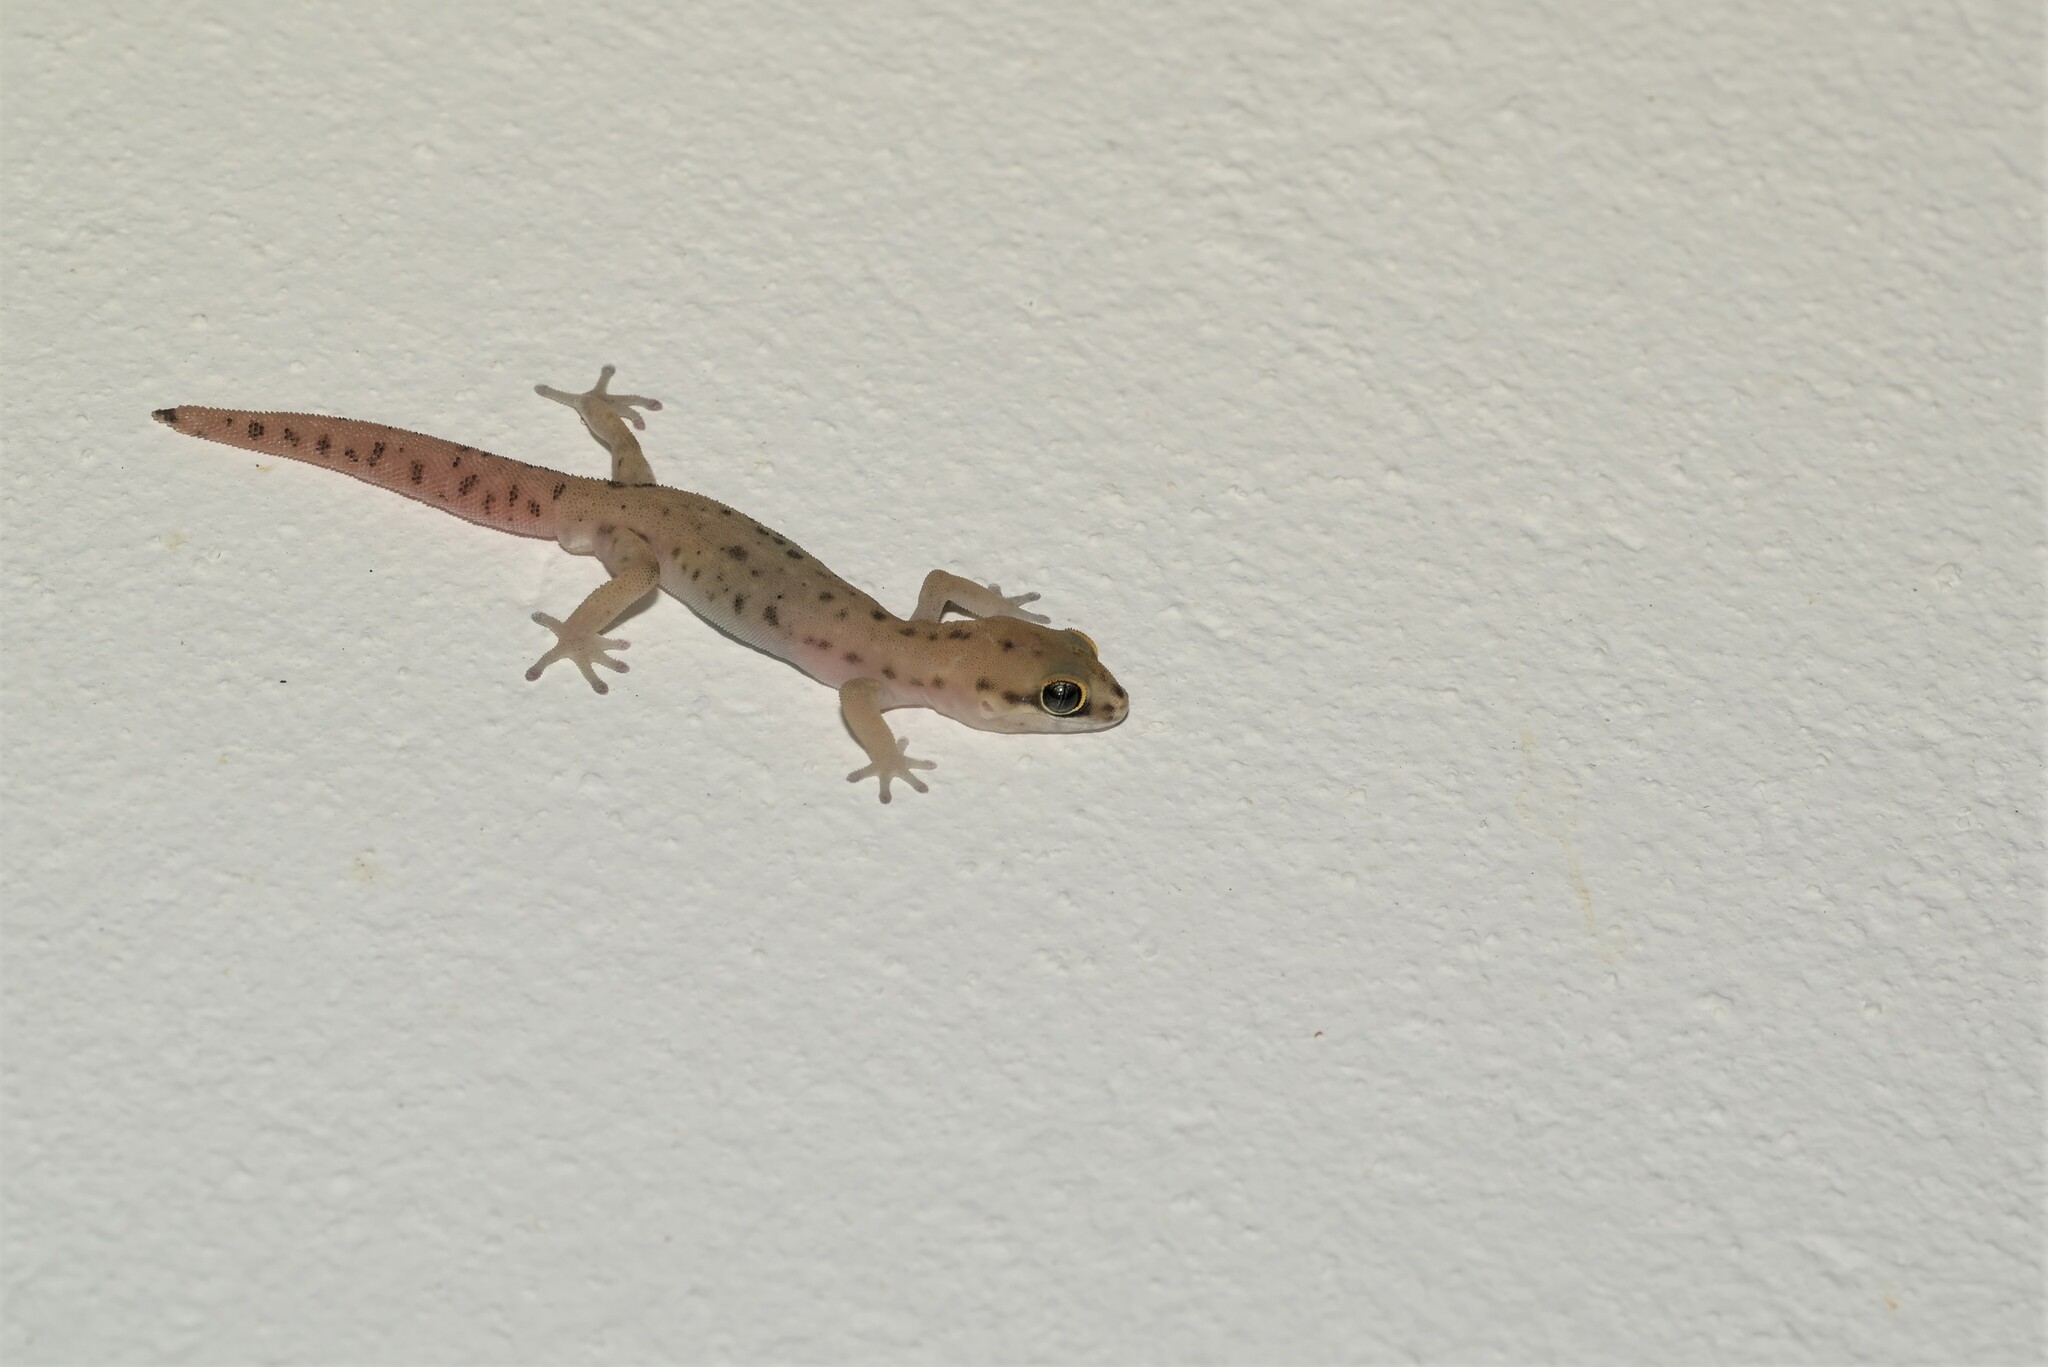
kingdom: Animalia
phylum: Chordata
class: Squamata
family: Gekkonidae
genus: Pachydactylus
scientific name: Pachydactylus geitje
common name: Ocellated thick-toed gecko
